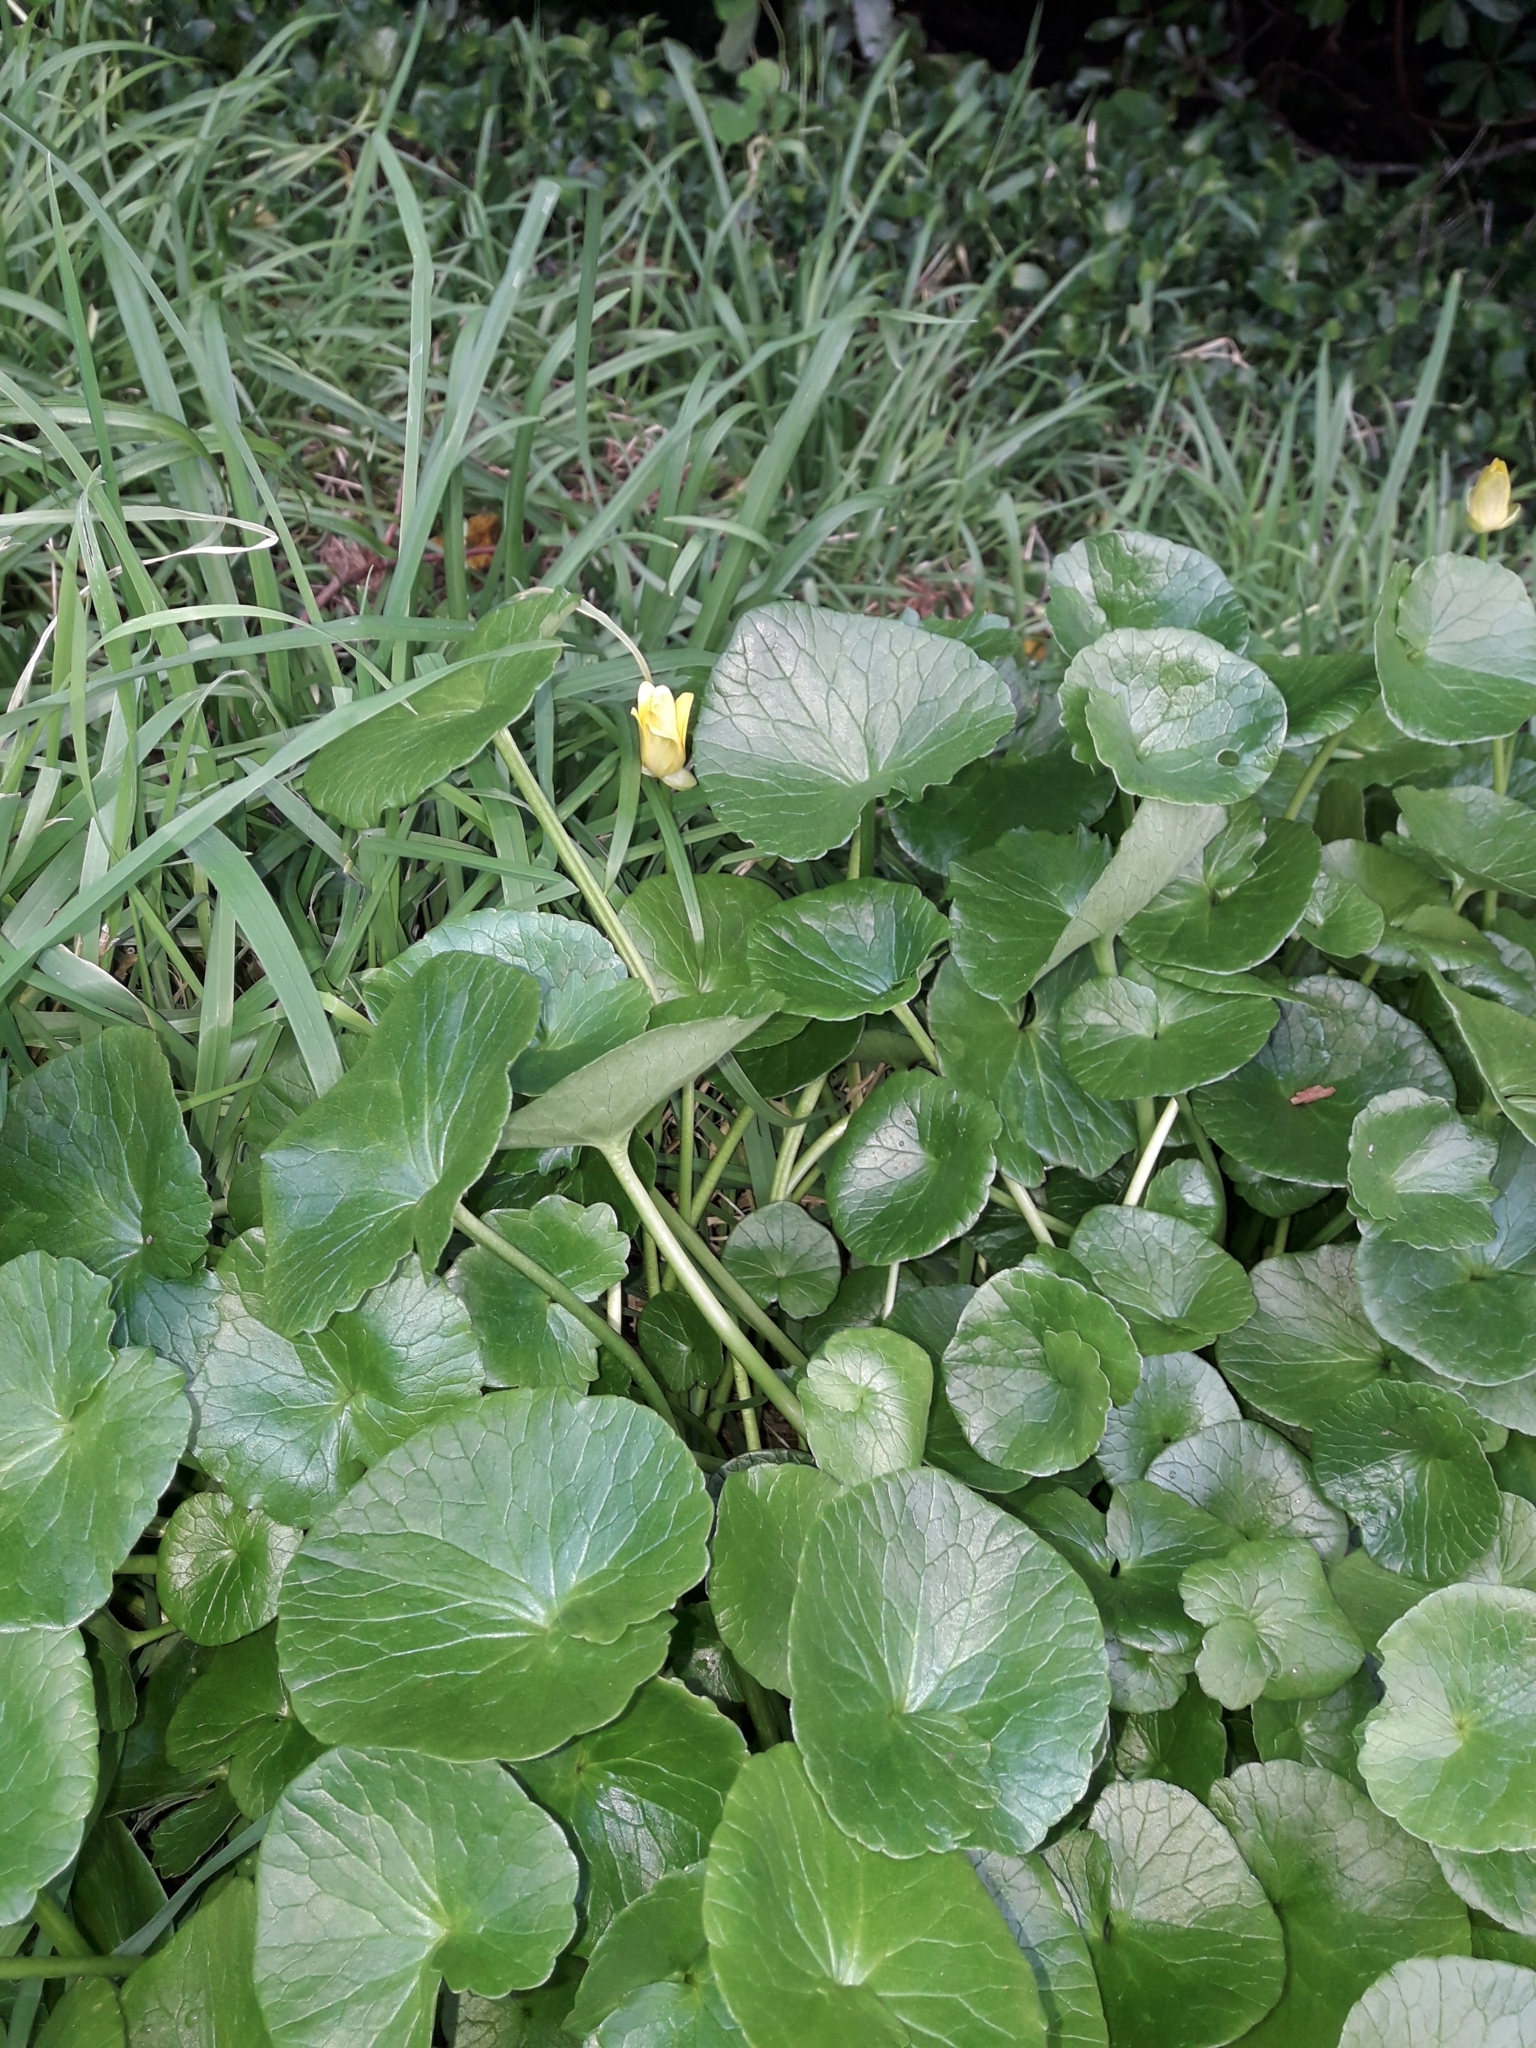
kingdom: Plantae
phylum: Tracheophyta
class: Magnoliopsida
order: Ranunculales
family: Ranunculaceae
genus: Ficaria
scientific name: Ficaria verna
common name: Lesser celandine
